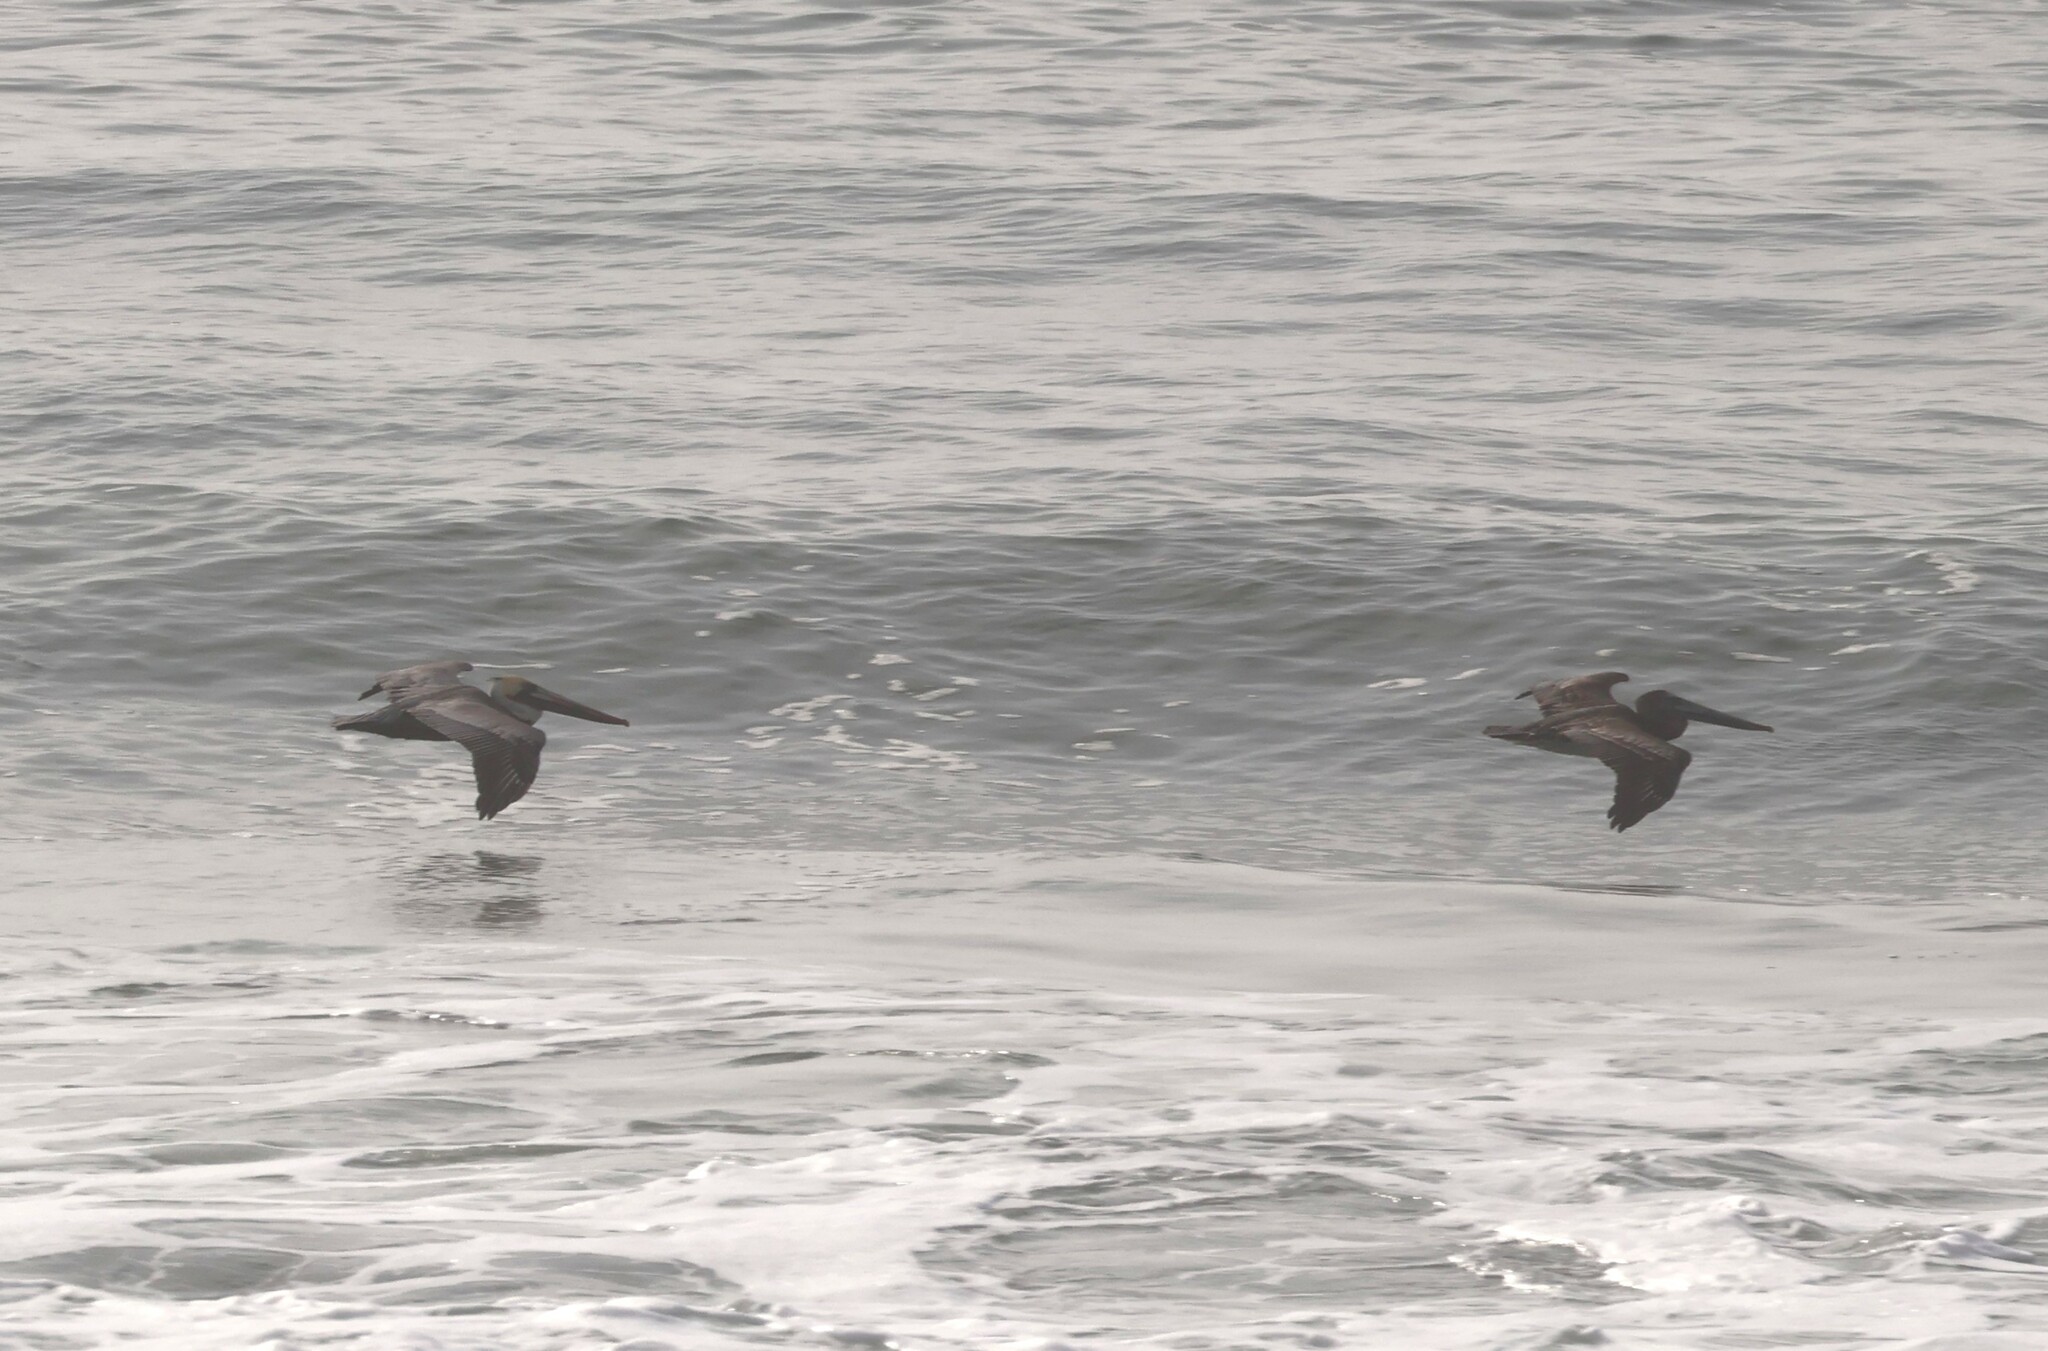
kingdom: Animalia
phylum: Chordata
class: Aves
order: Pelecaniformes
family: Pelecanidae
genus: Pelecanus
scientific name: Pelecanus occidentalis
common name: Brown pelican
